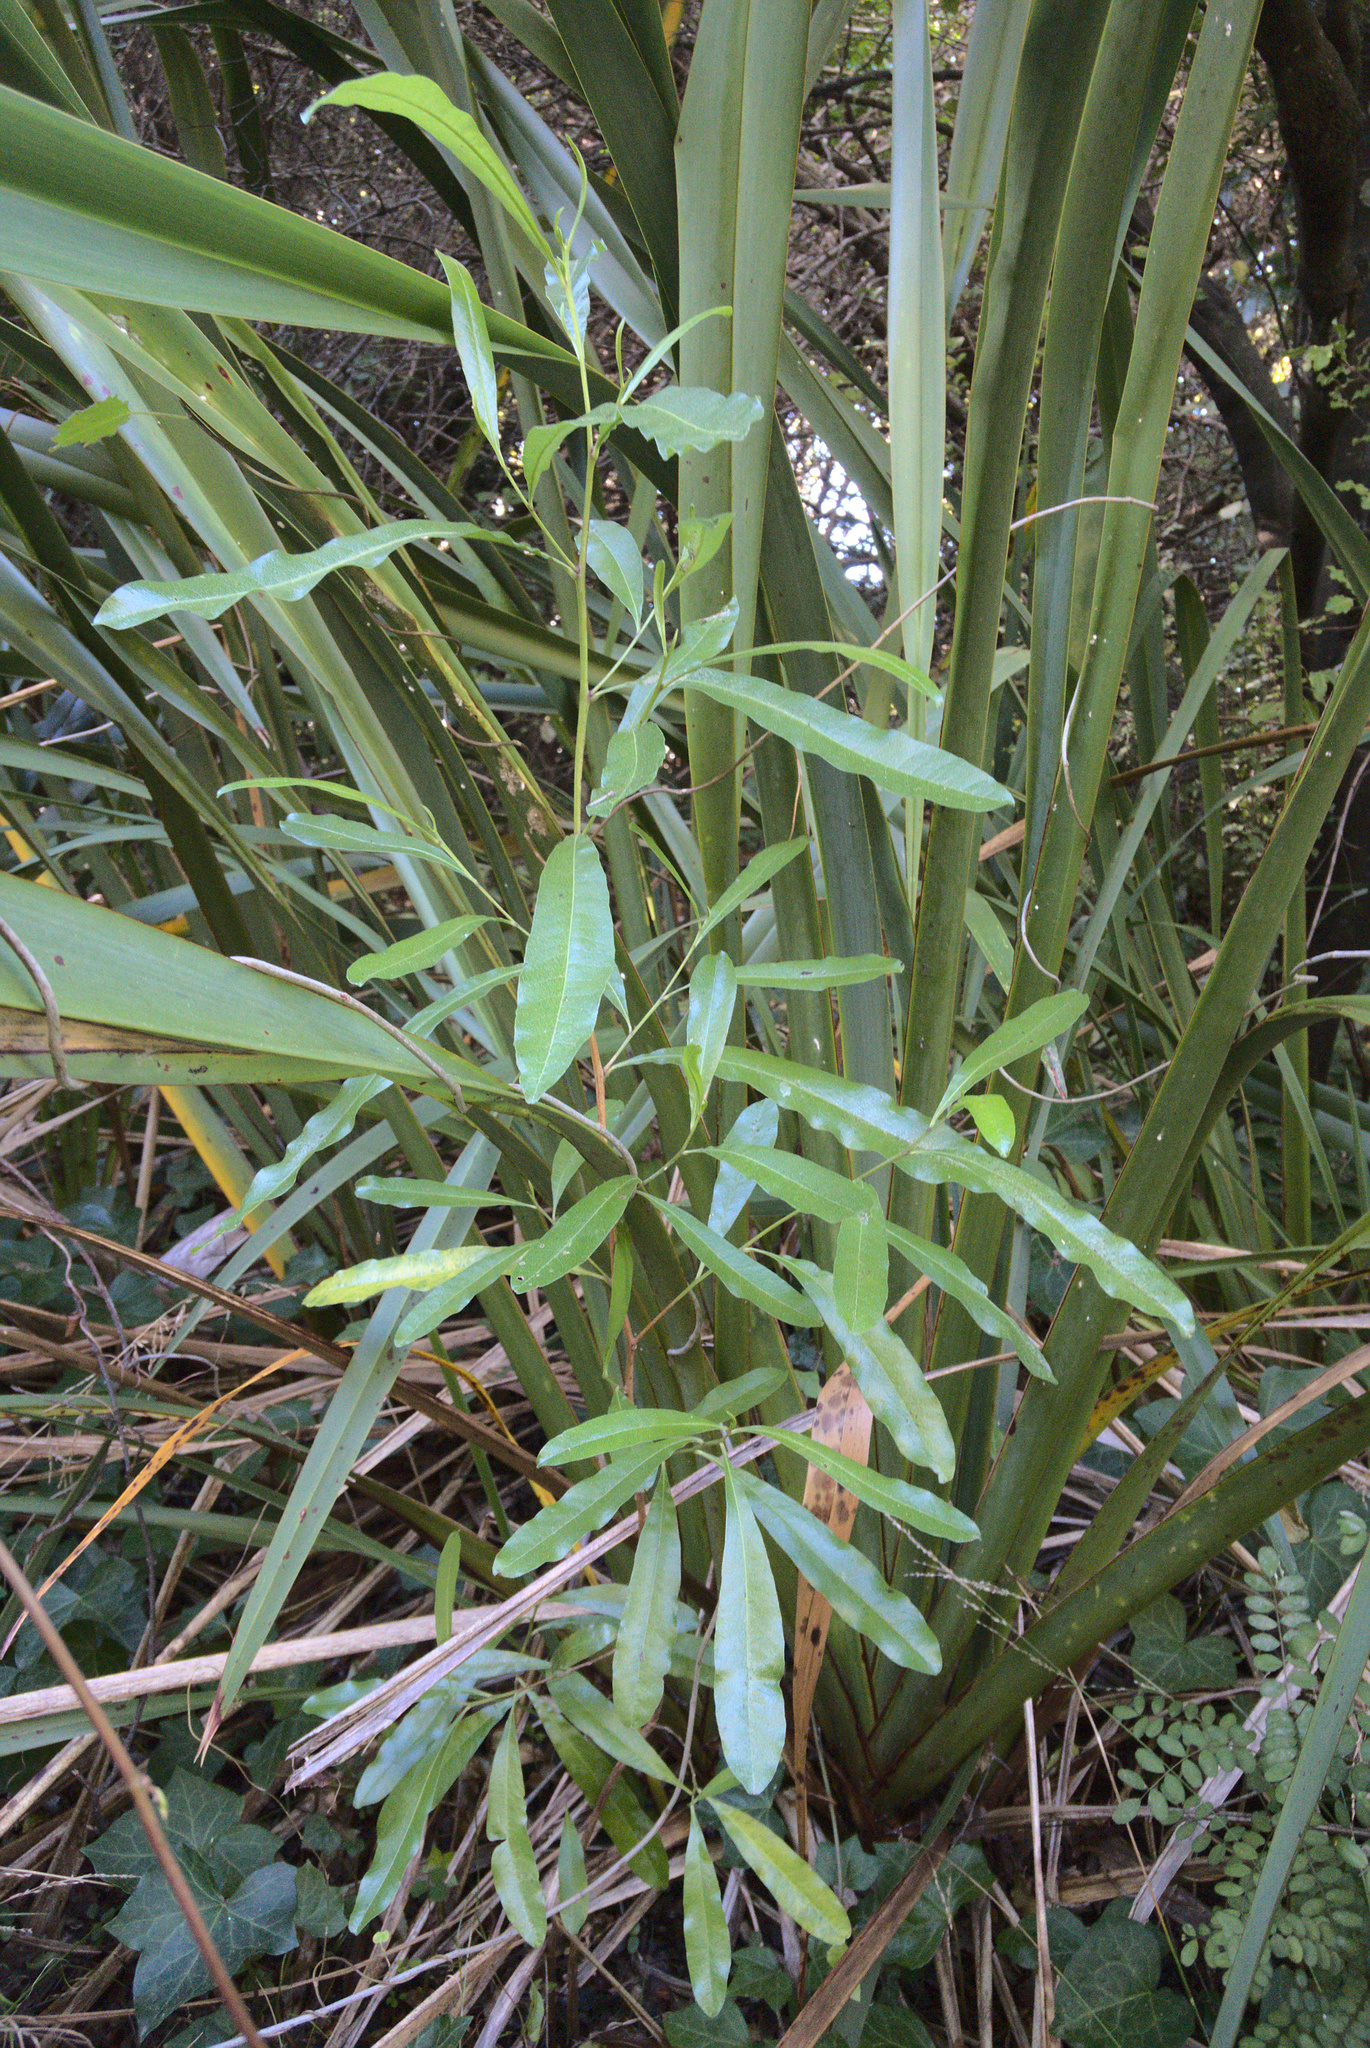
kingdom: Plantae
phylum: Tracheophyta
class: Magnoliopsida
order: Sapindales
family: Sapindaceae
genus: Dodonaea
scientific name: Dodonaea viscosa
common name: Hopbush
